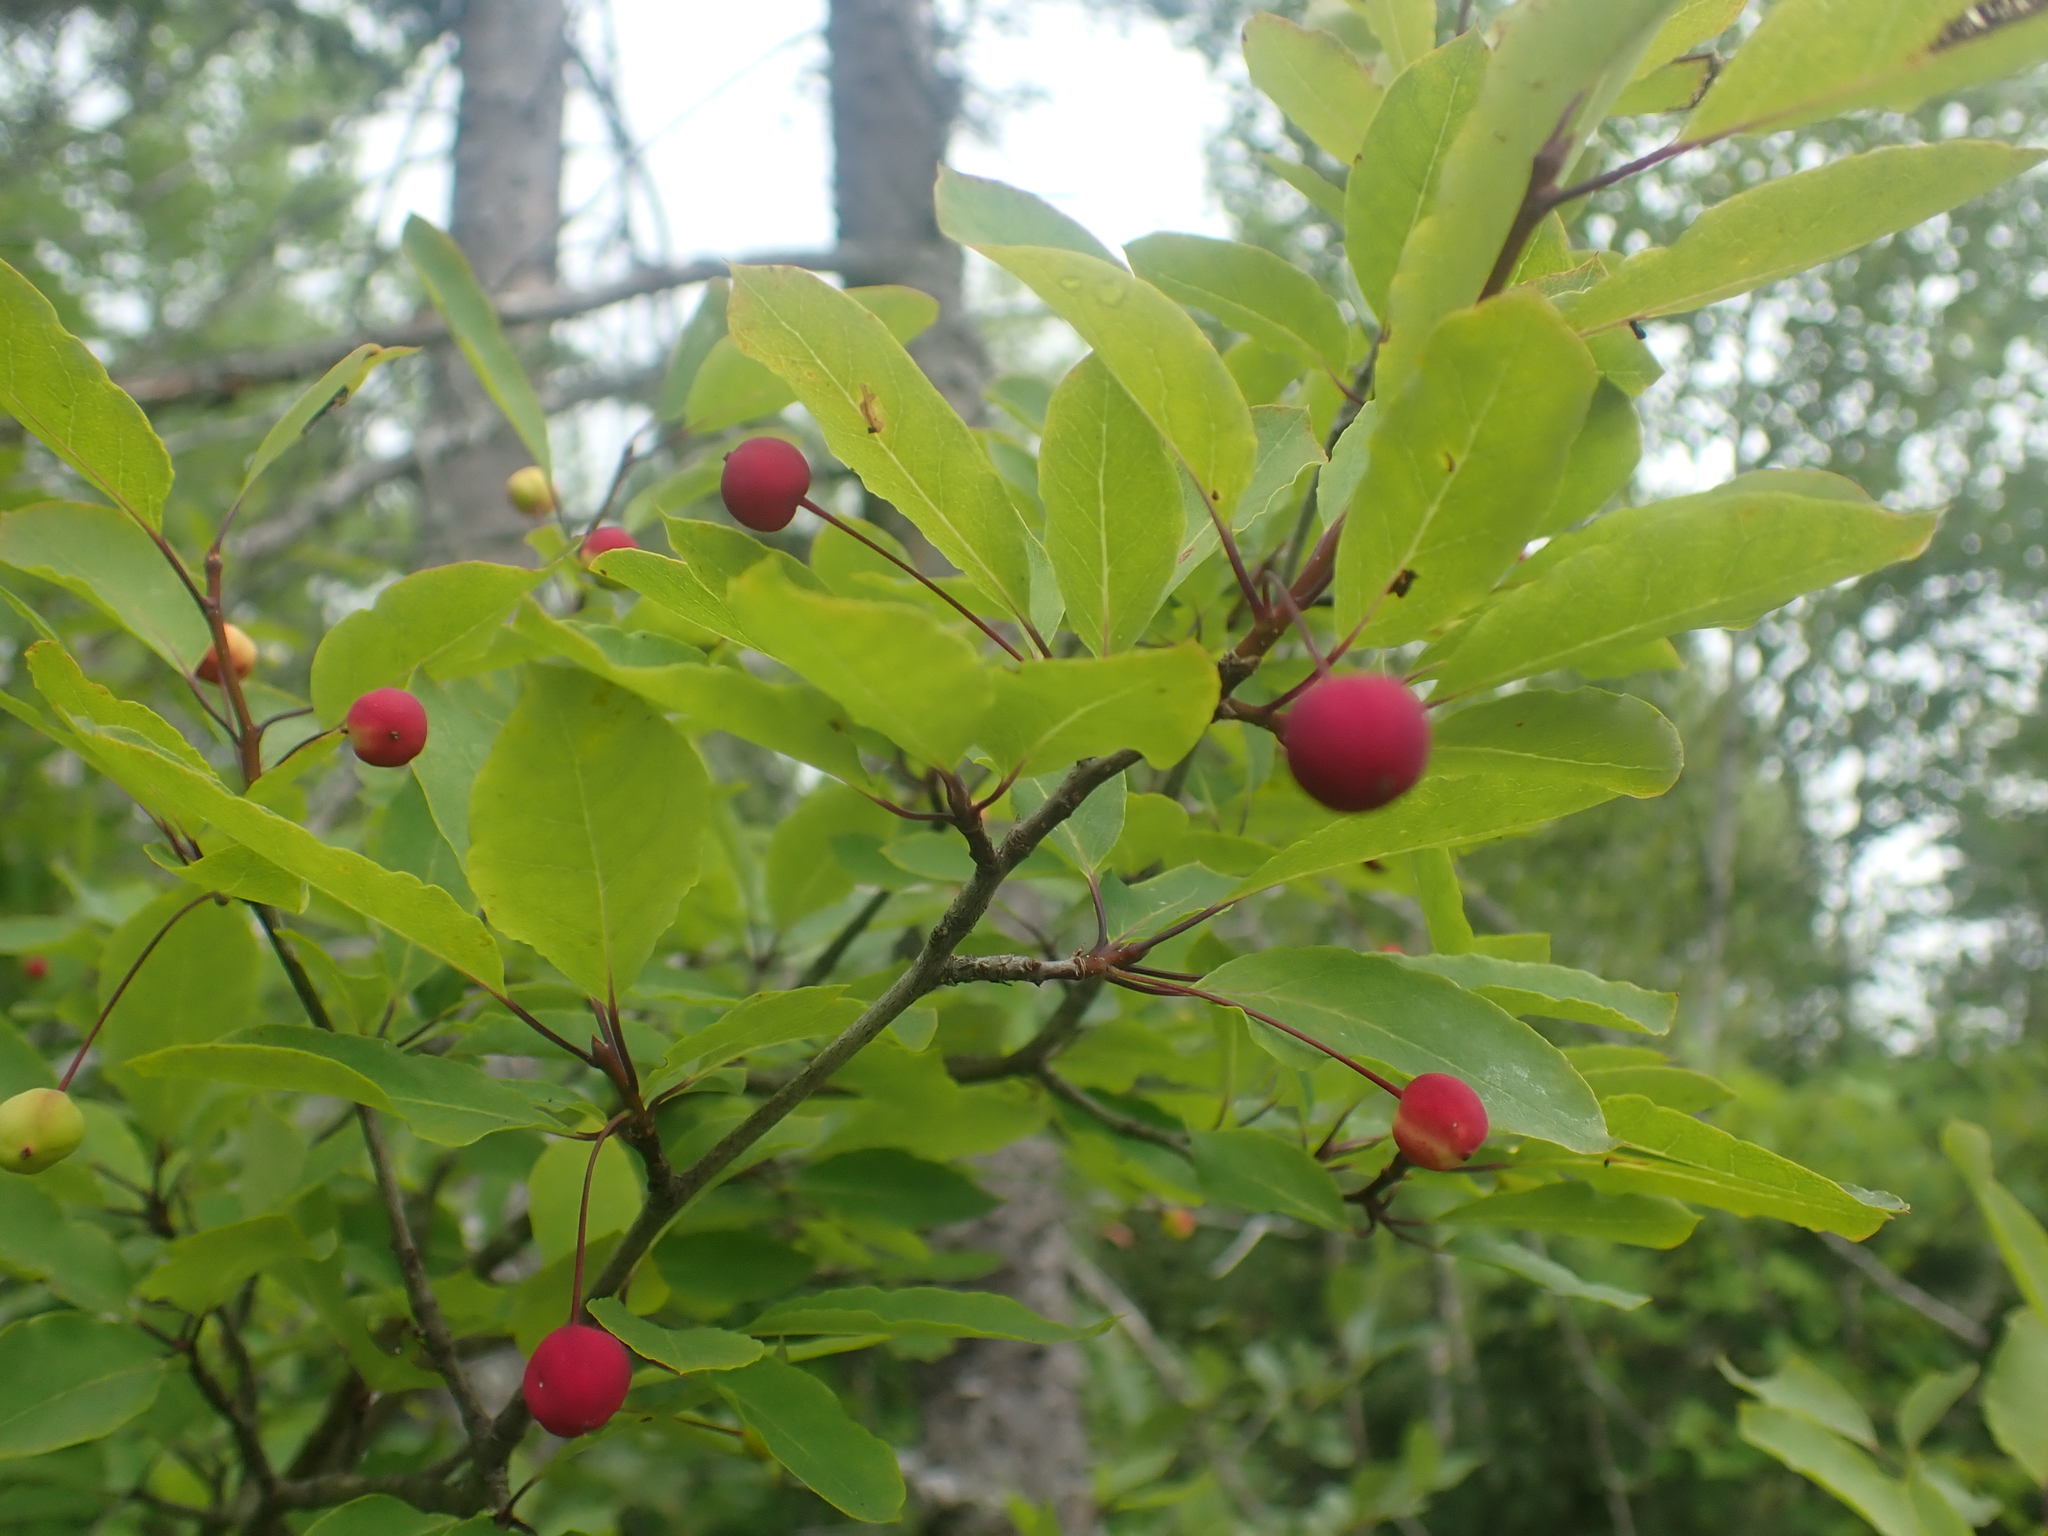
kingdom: Plantae
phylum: Tracheophyta
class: Magnoliopsida
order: Aquifoliales
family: Aquifoliaceae
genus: Ilex
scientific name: Ilex mucronata
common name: Catberry
